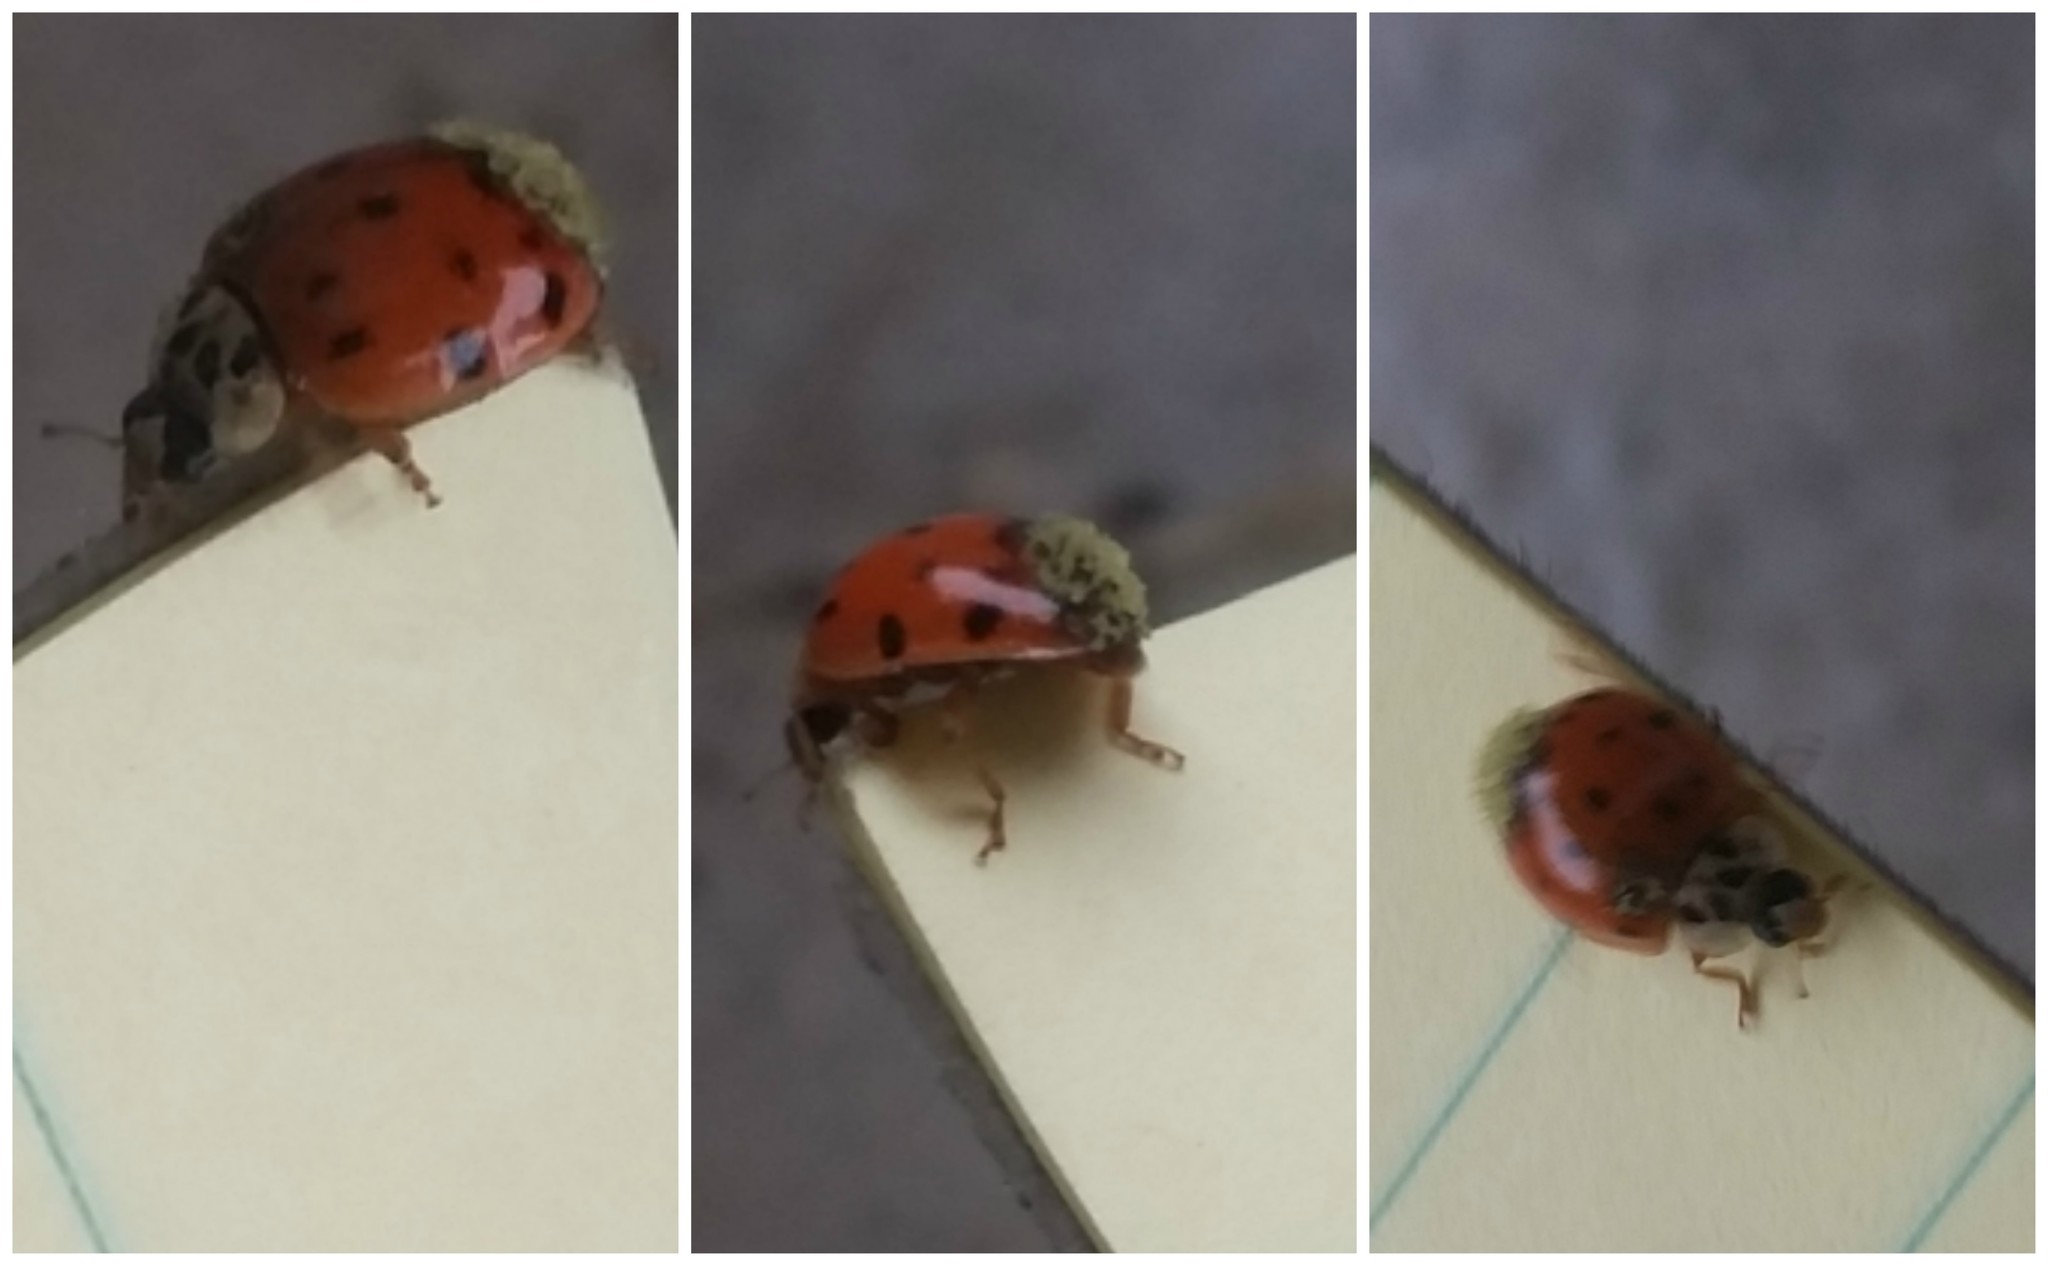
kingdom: Animalia
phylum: Arthropoda
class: Insecta
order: Coleoptera
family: Coccinellidae
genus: Harmonia
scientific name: Harmonia axyridis
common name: Harlequin ladybird
